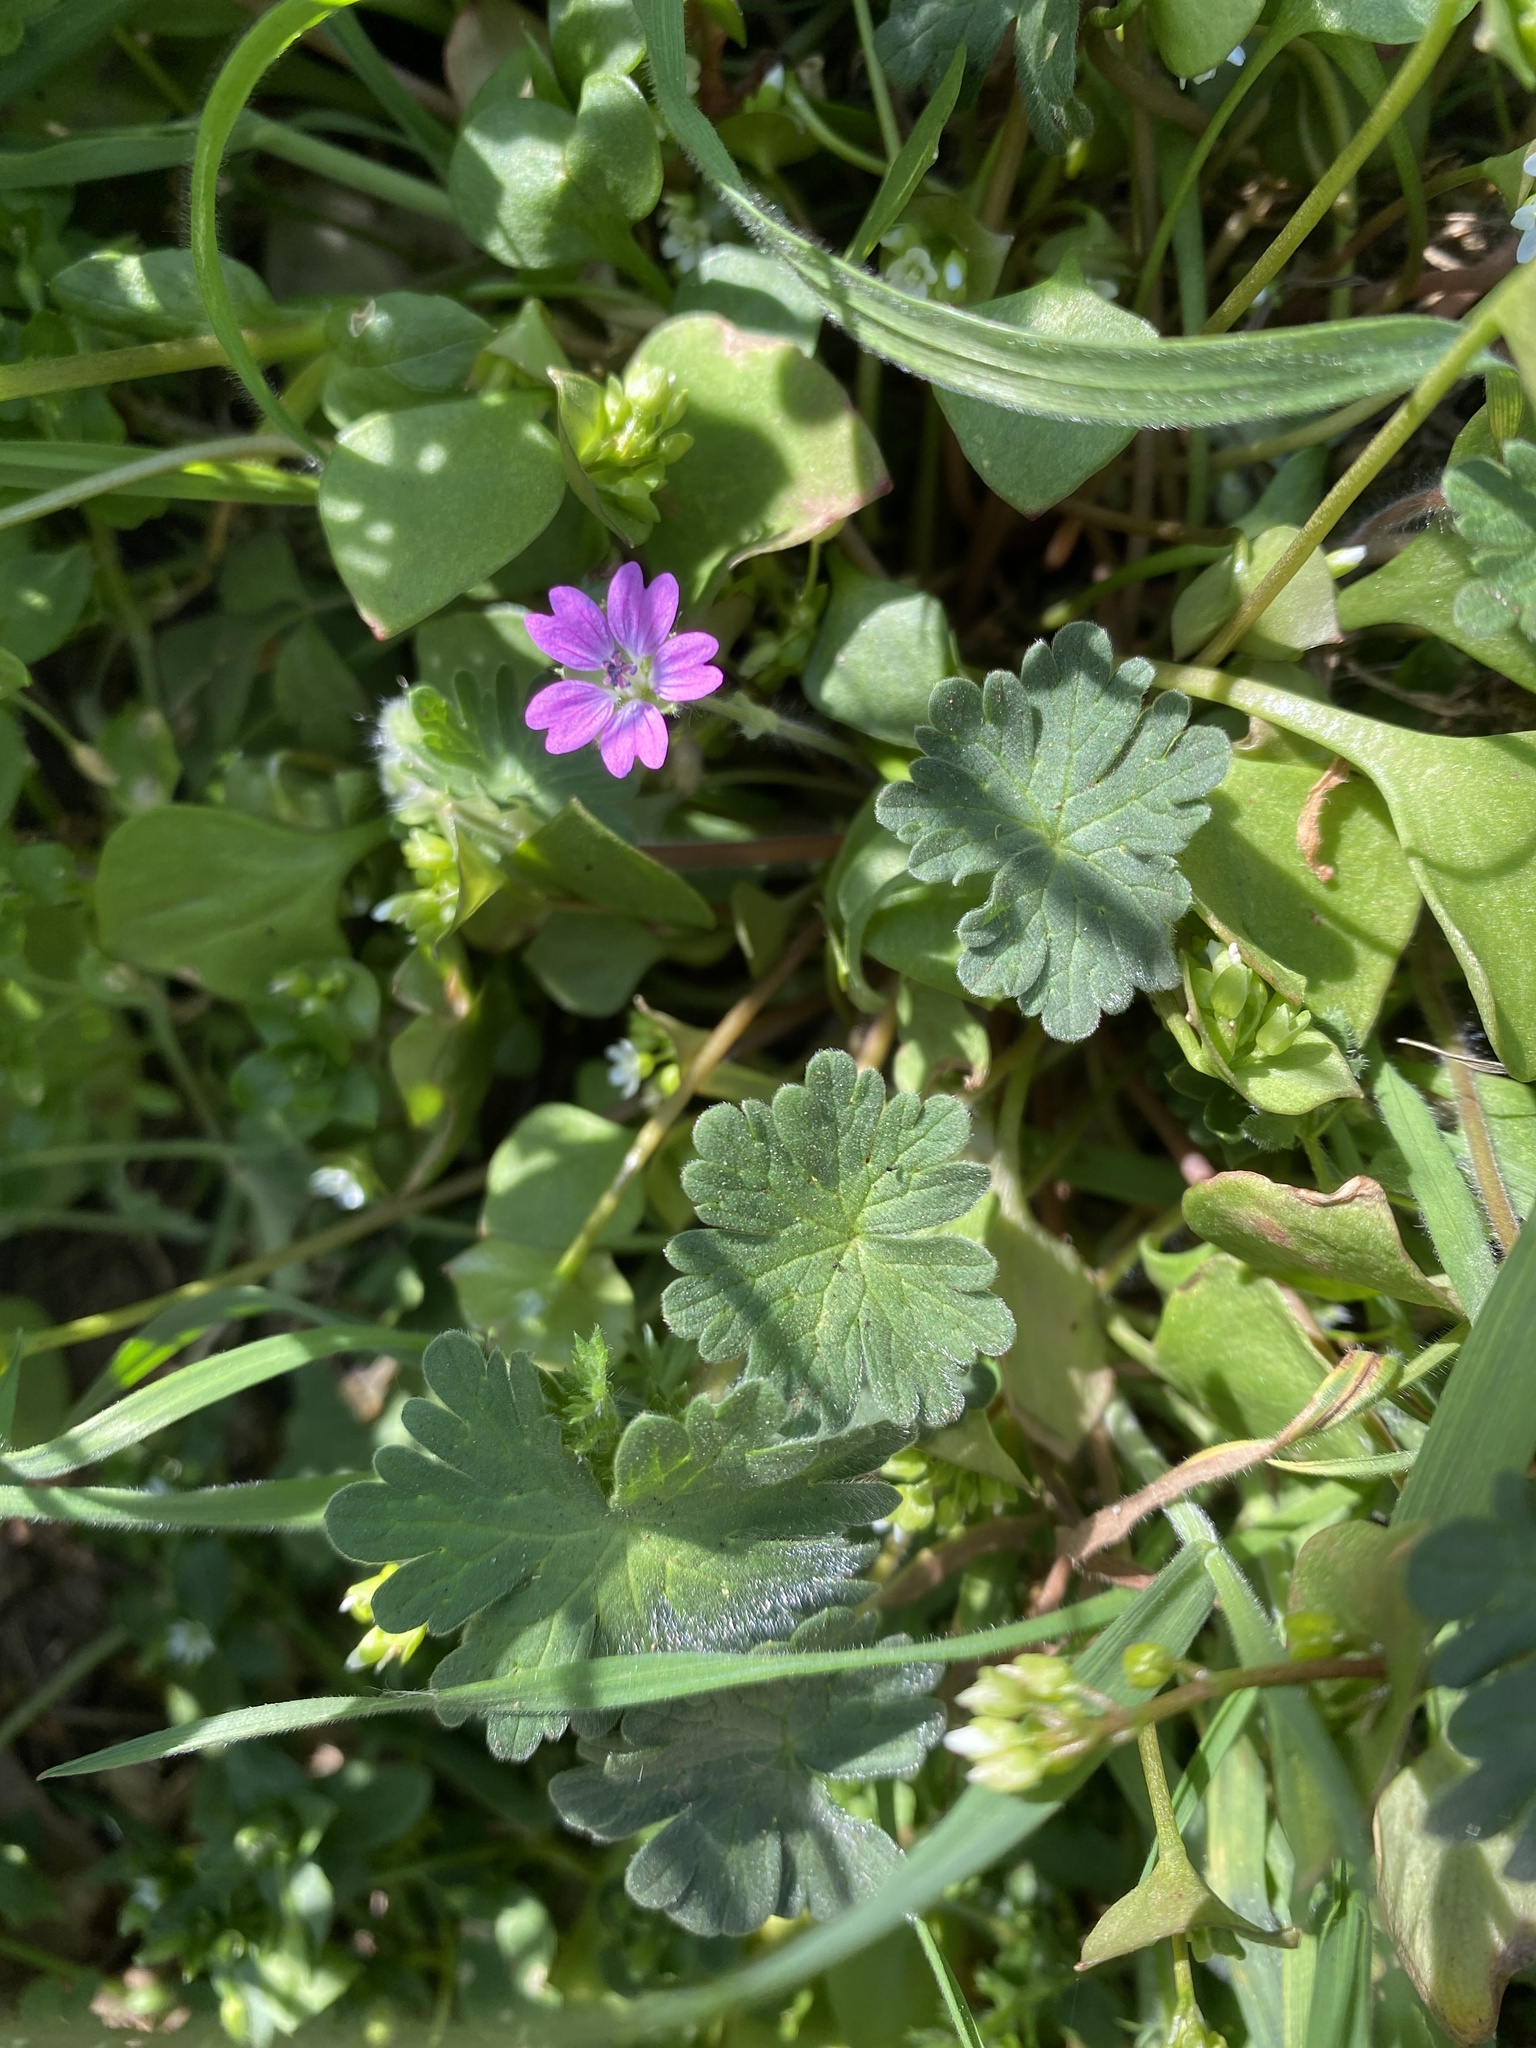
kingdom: Plantae
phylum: Tracheophyta
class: Magnoliopsida
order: Geraniales
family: Geraniaceae
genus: Geranium
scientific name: Geranium molle
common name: Dove's-foot crane's-bill
